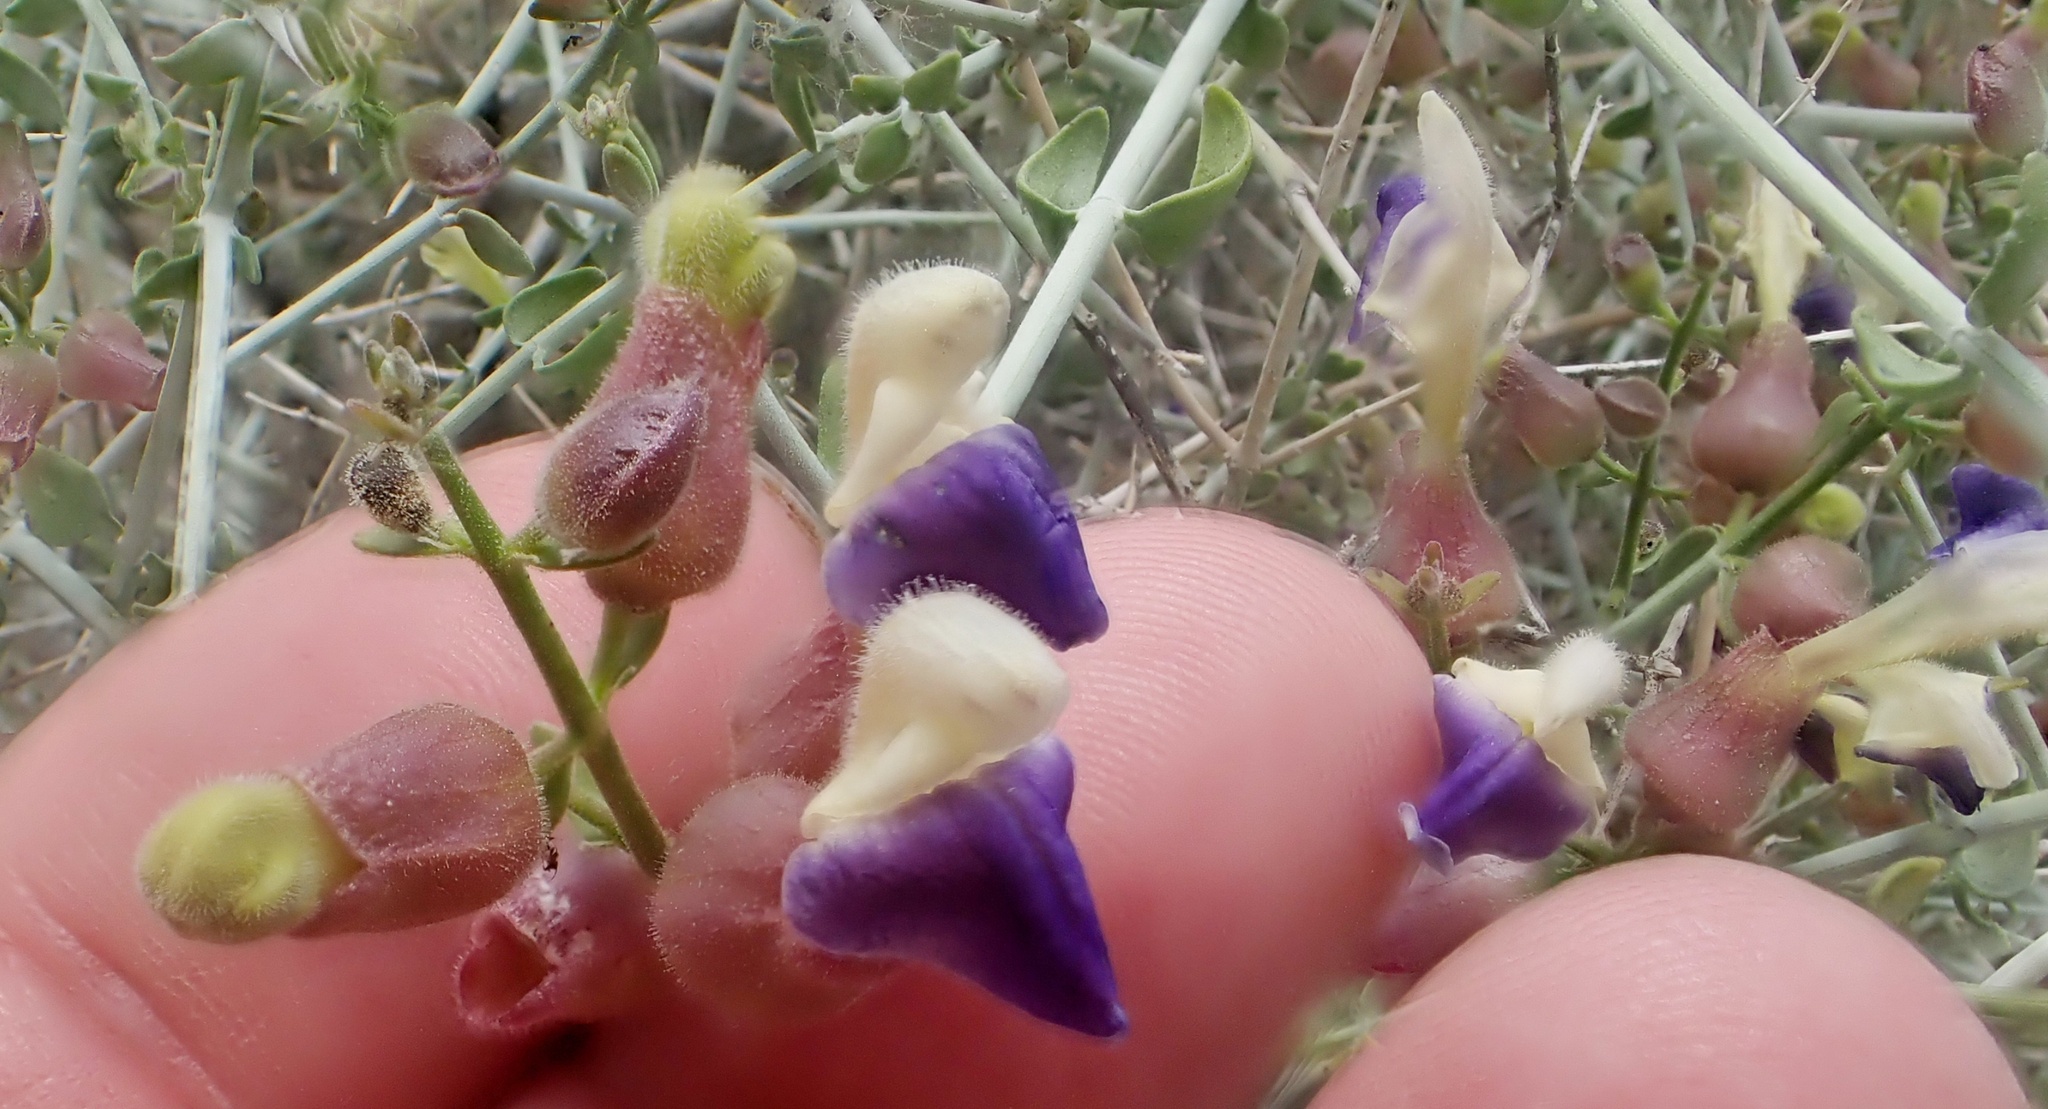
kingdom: Plantae
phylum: Tracheophyta
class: Magnoliopsida
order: Lamiales
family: Lamiaceae
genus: Scutellaria
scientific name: Scutellaria mexicana
